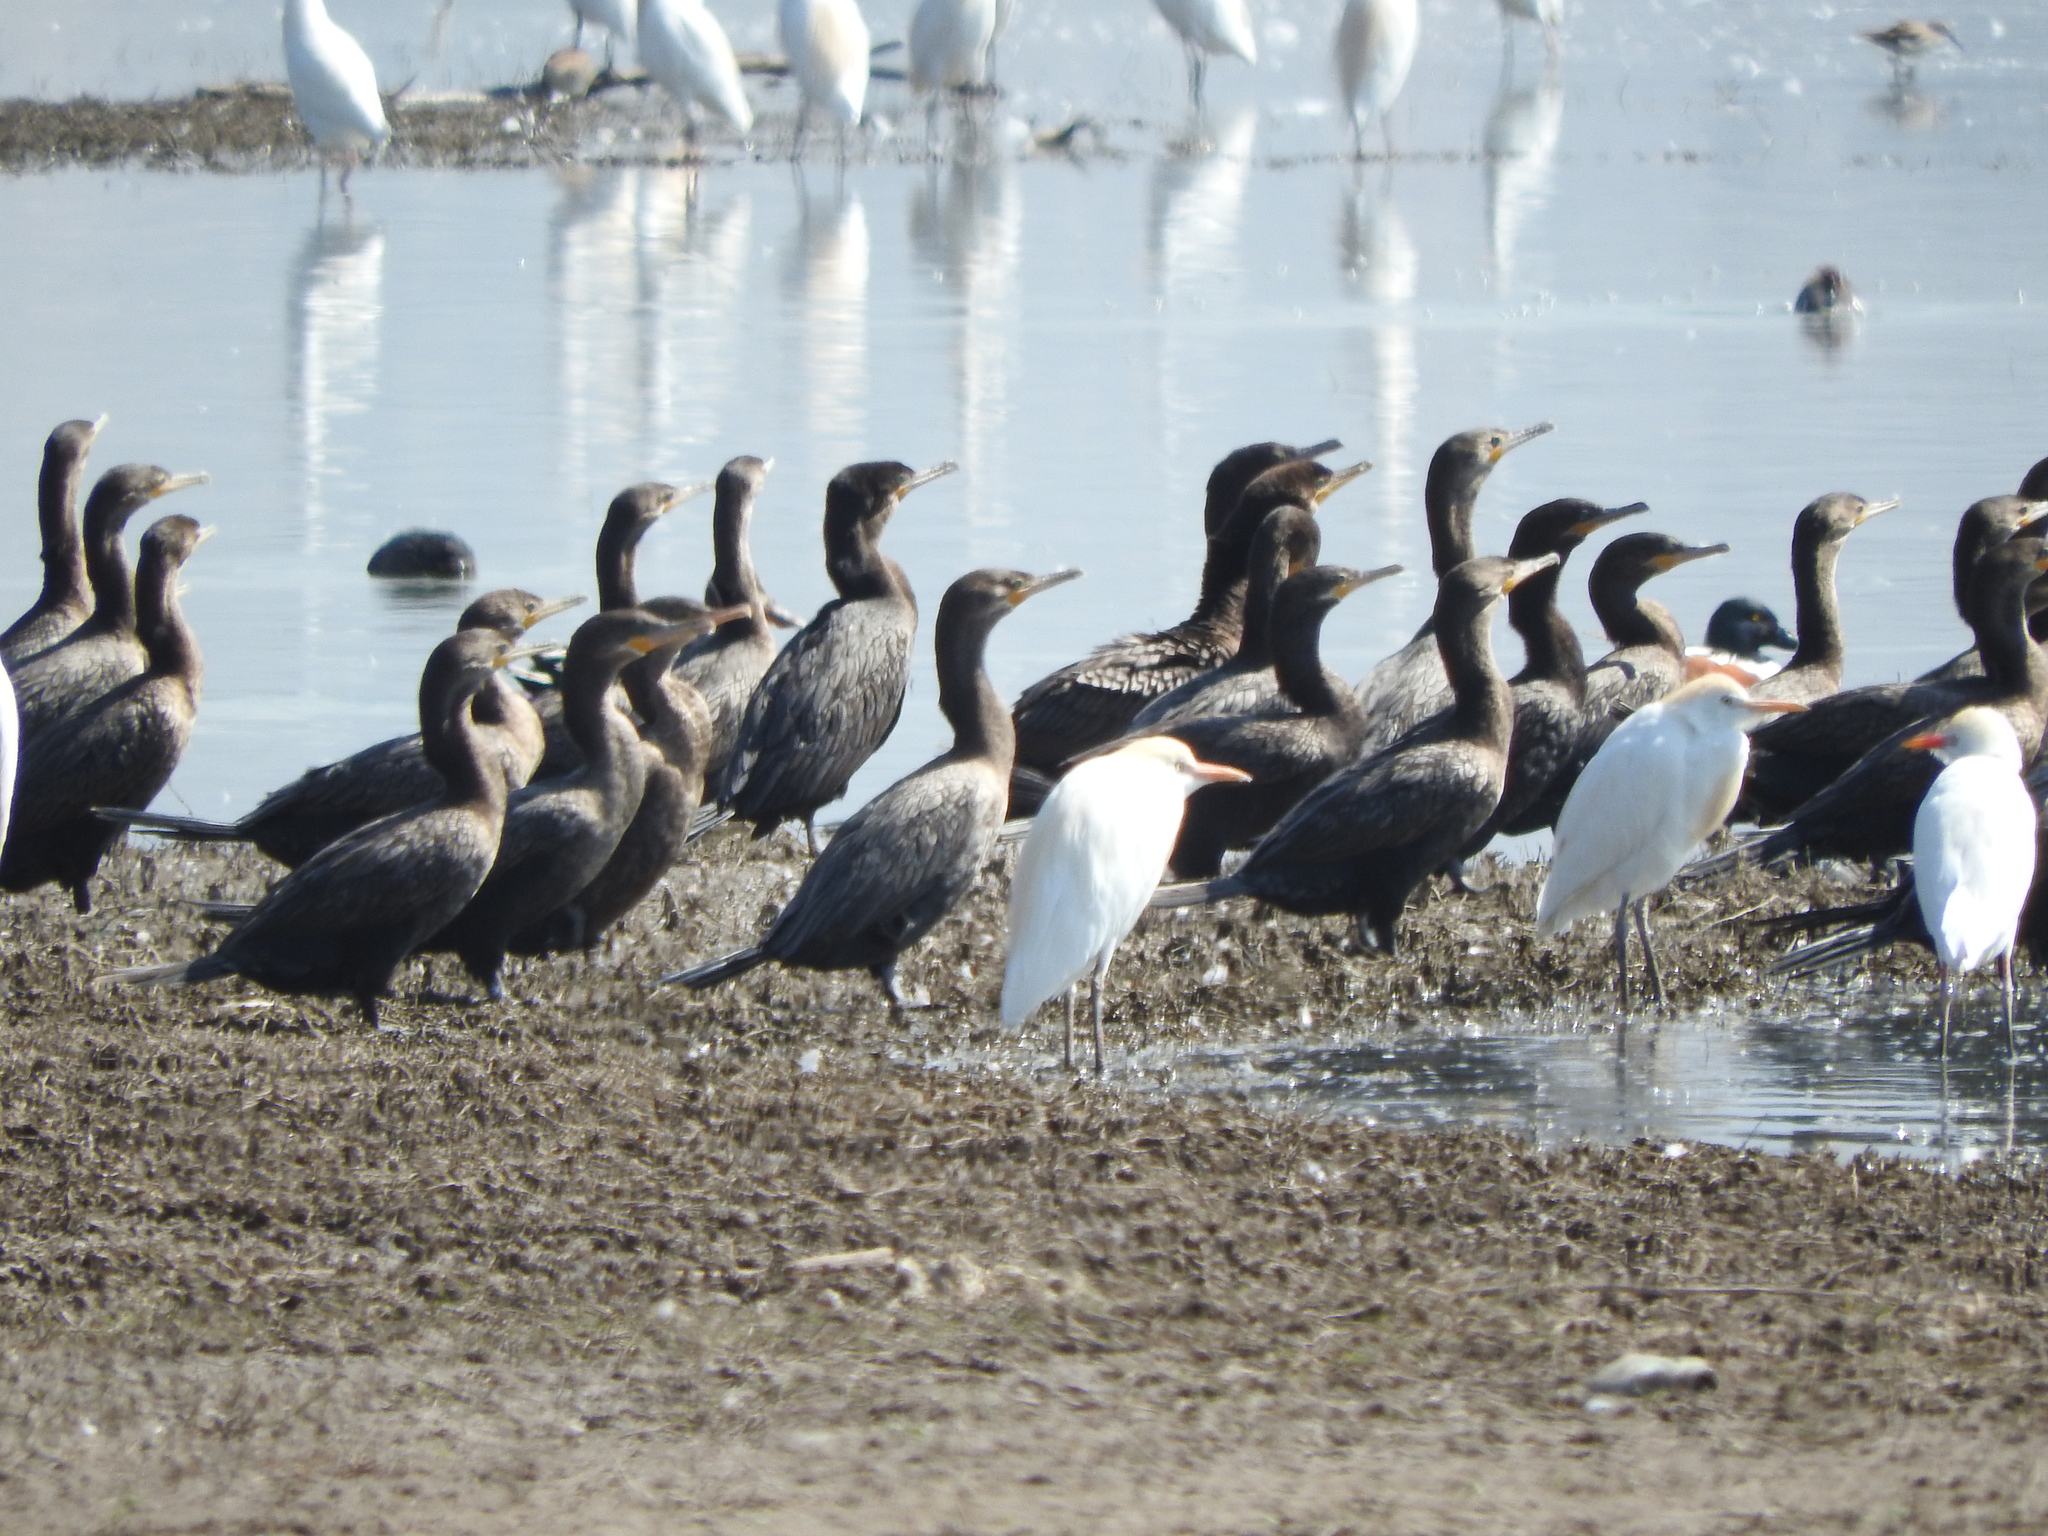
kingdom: Animalia
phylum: Chordata
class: Aves
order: Pelecaniformes
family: Ardeidae
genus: Bubulcus
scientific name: Bubulcus ibis
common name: Cattle egret
